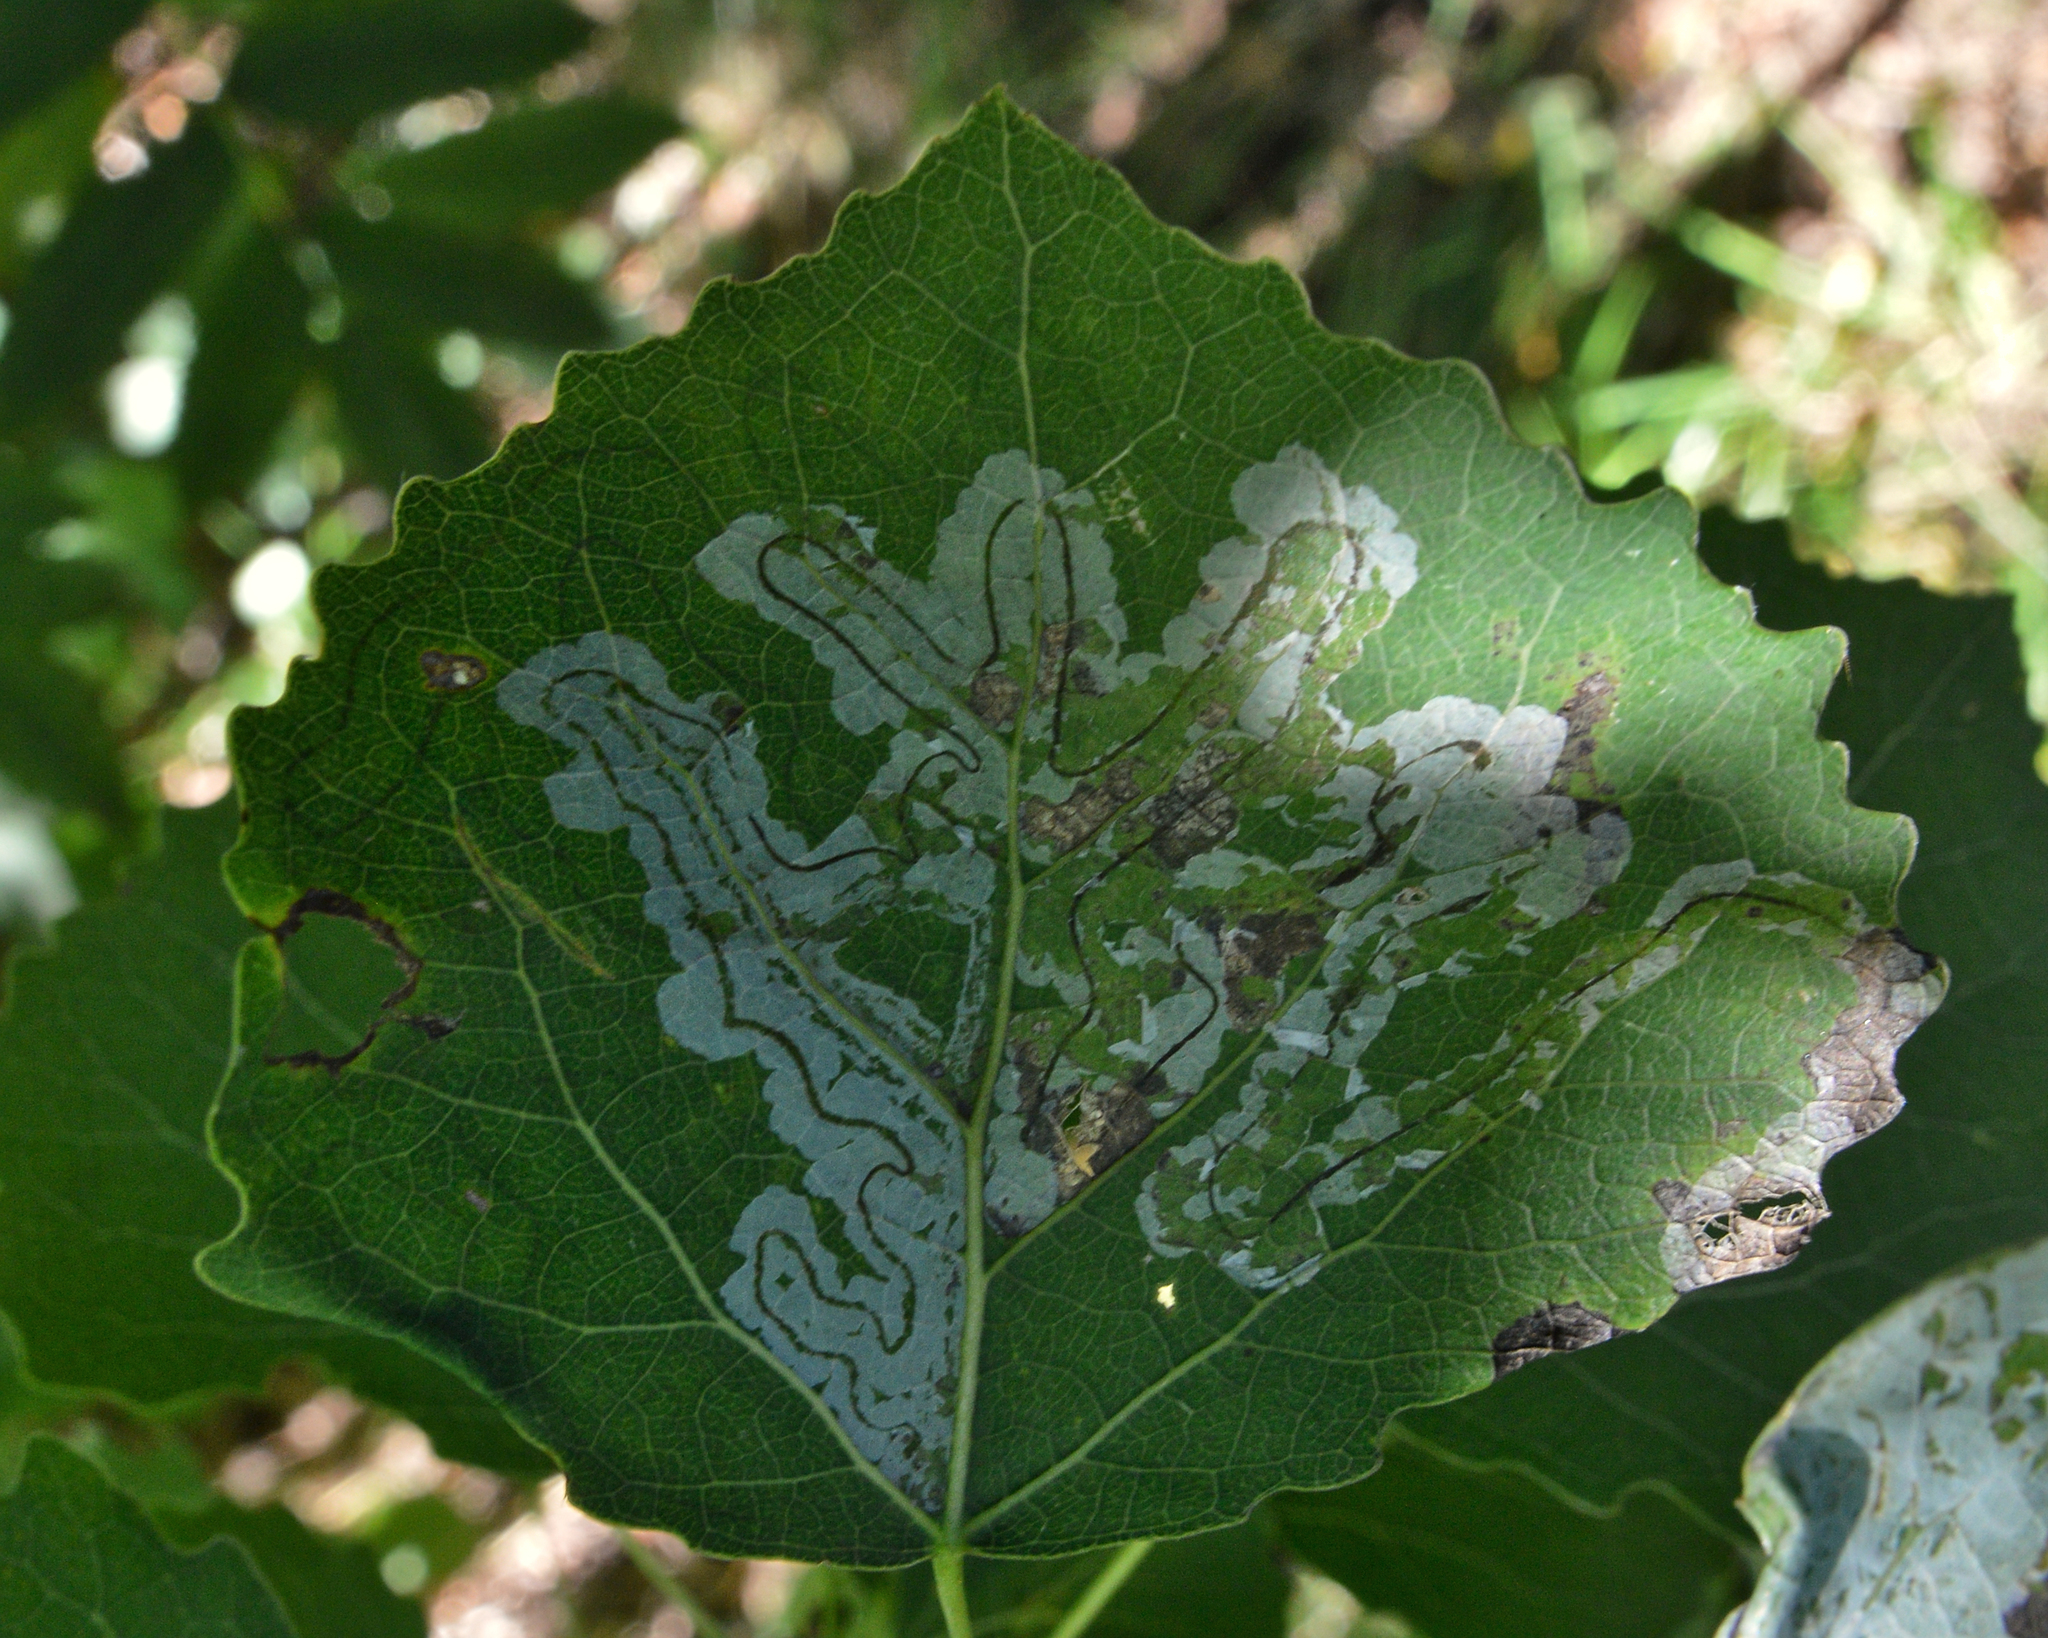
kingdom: Plantae
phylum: Tracheophyta
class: Magnoliopsida
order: Malpighiales
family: Salicaceae
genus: Populus
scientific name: Populus tremula
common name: European aspen
